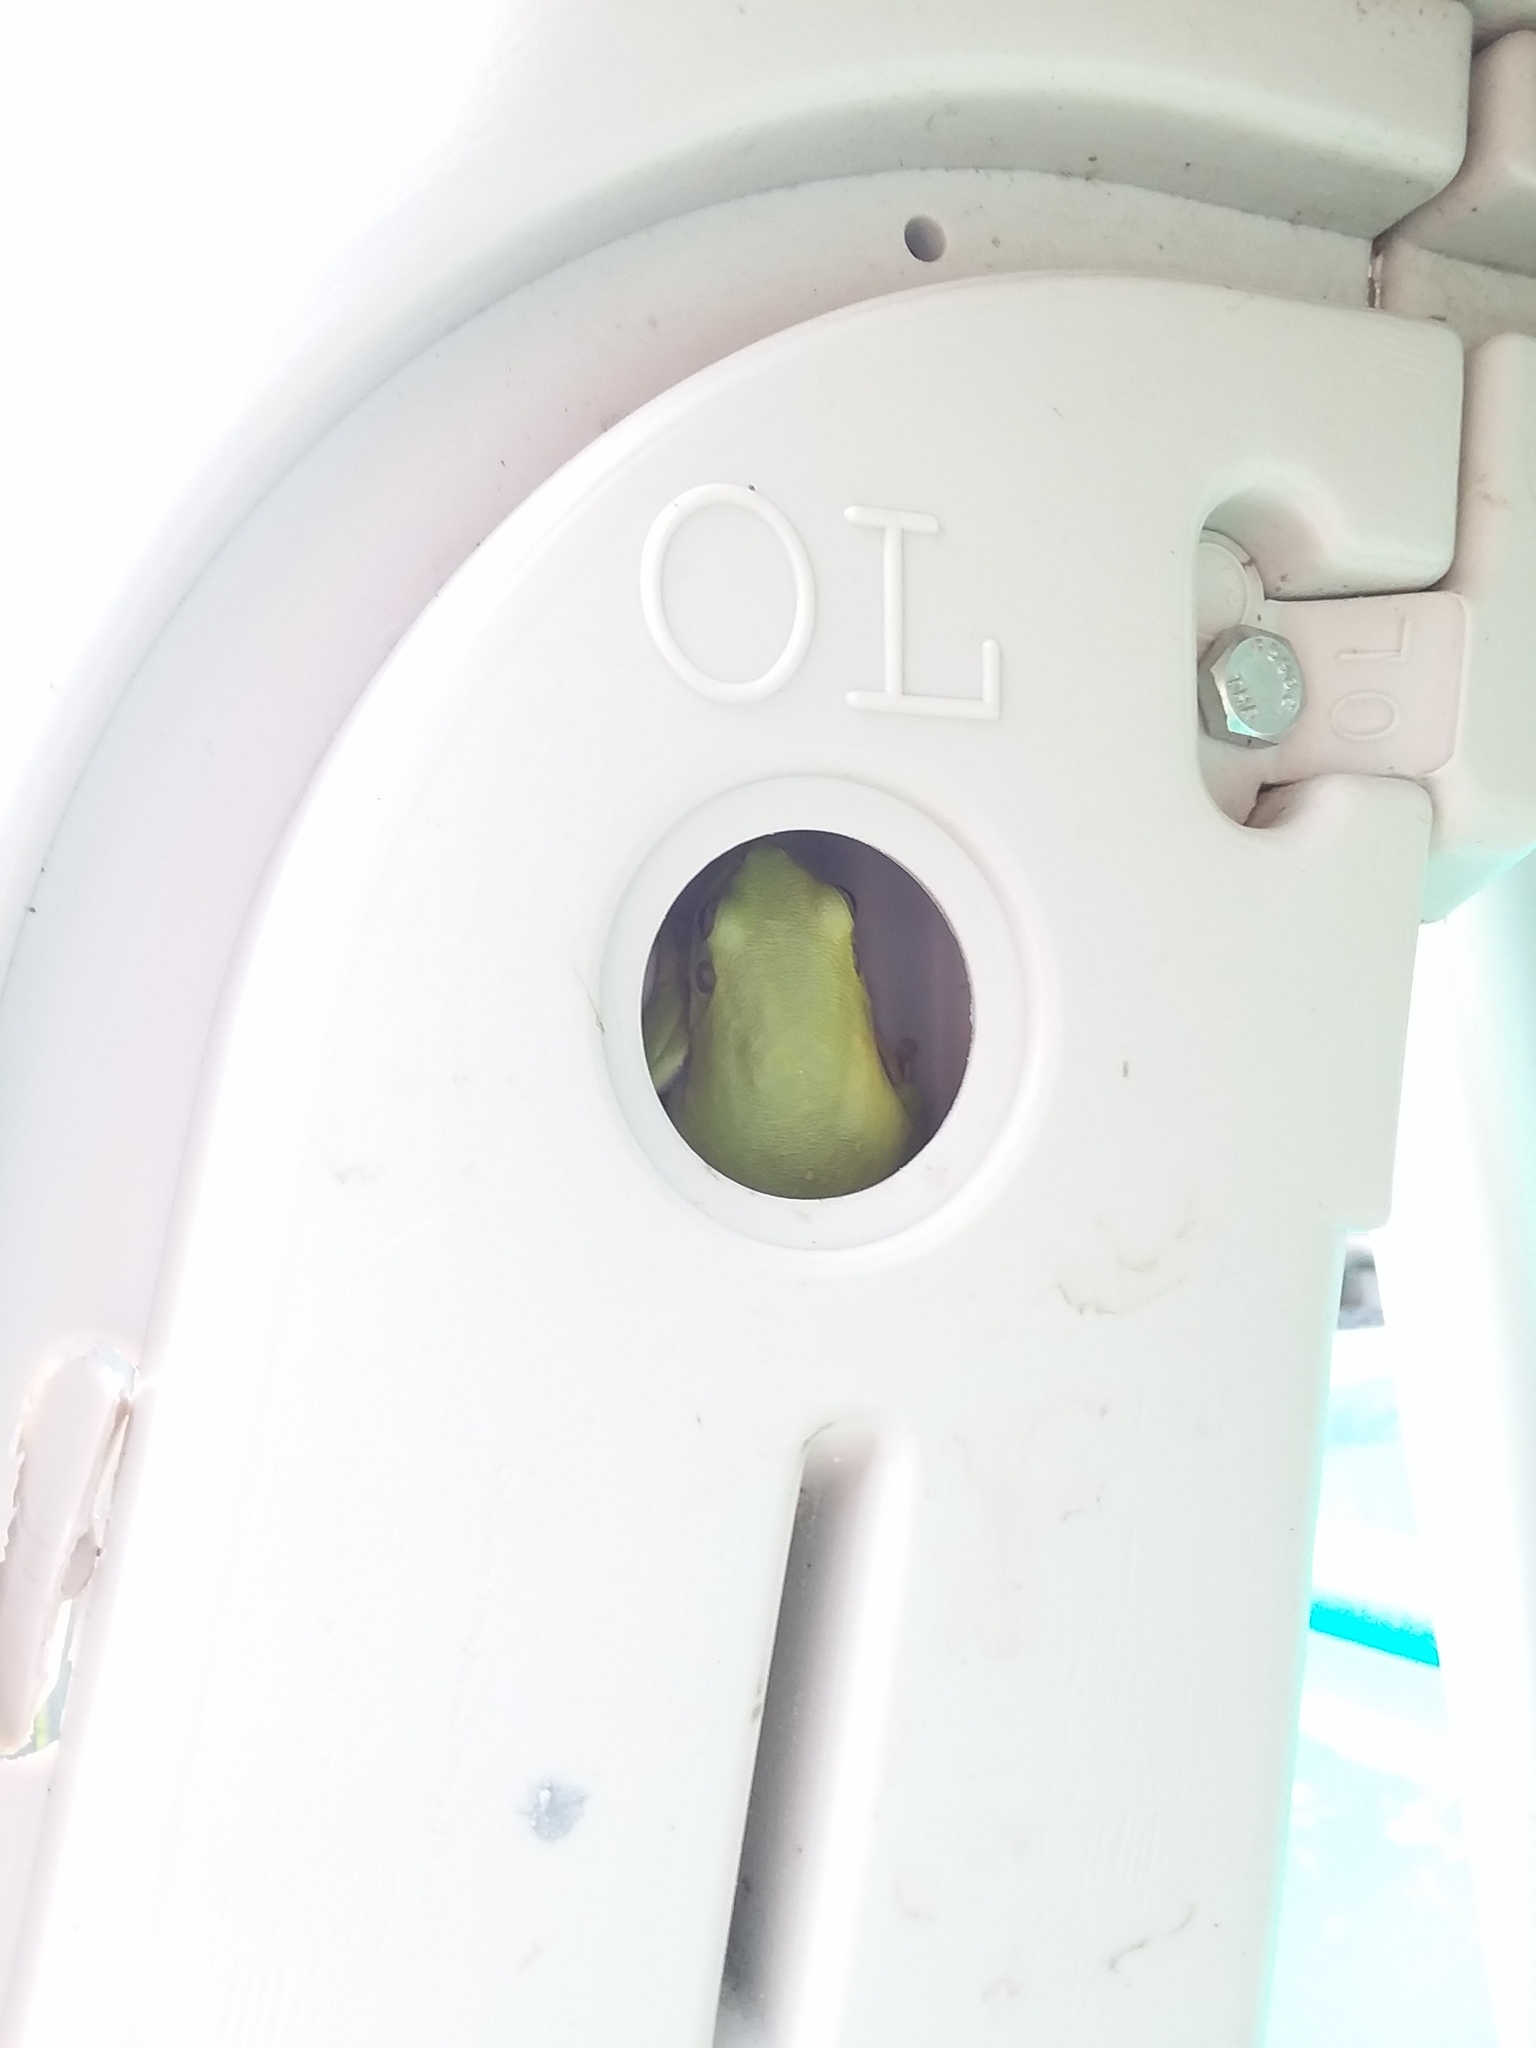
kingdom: Animalia
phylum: Chordata
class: Amphibia
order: Anura
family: Hylidae
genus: Dryophytes
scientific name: Dryophytes cinereus
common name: Green treefrog
